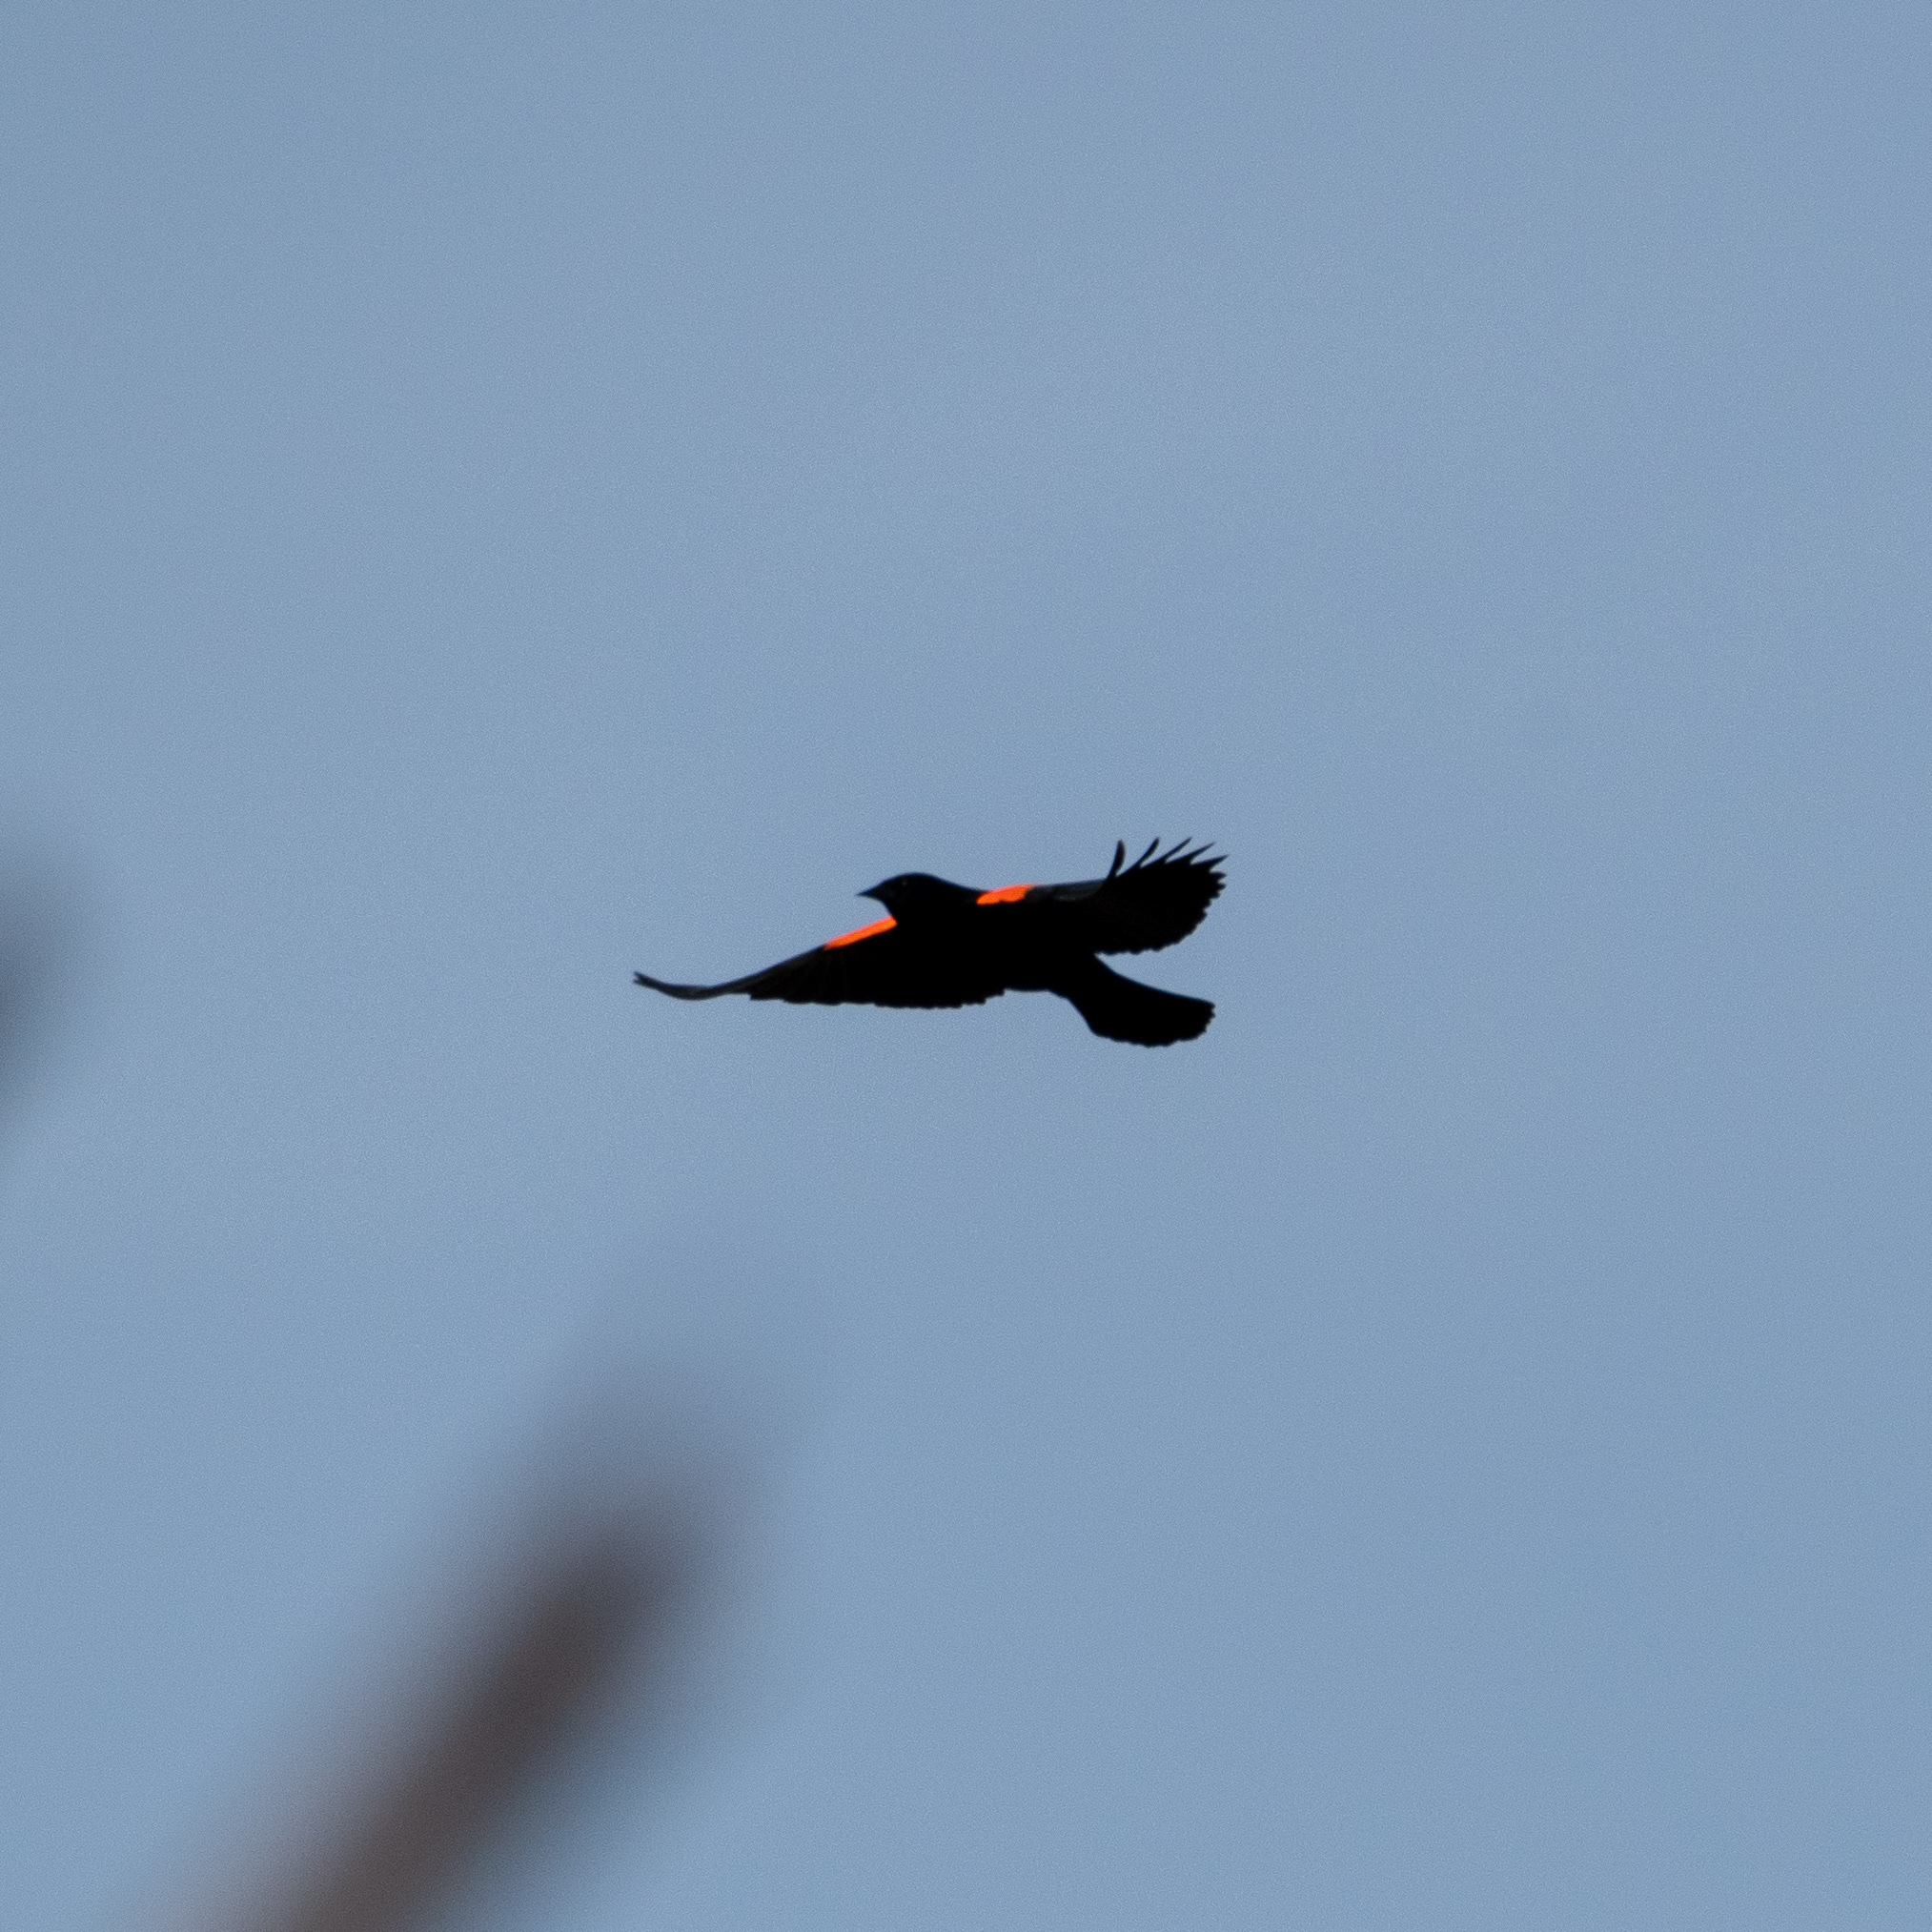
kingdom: Animalia
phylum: Chordata
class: Aves
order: Passeriformes
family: Icteridae
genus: Agelaius
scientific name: Agelaius phoeniceus
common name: Red-winged blackbird
